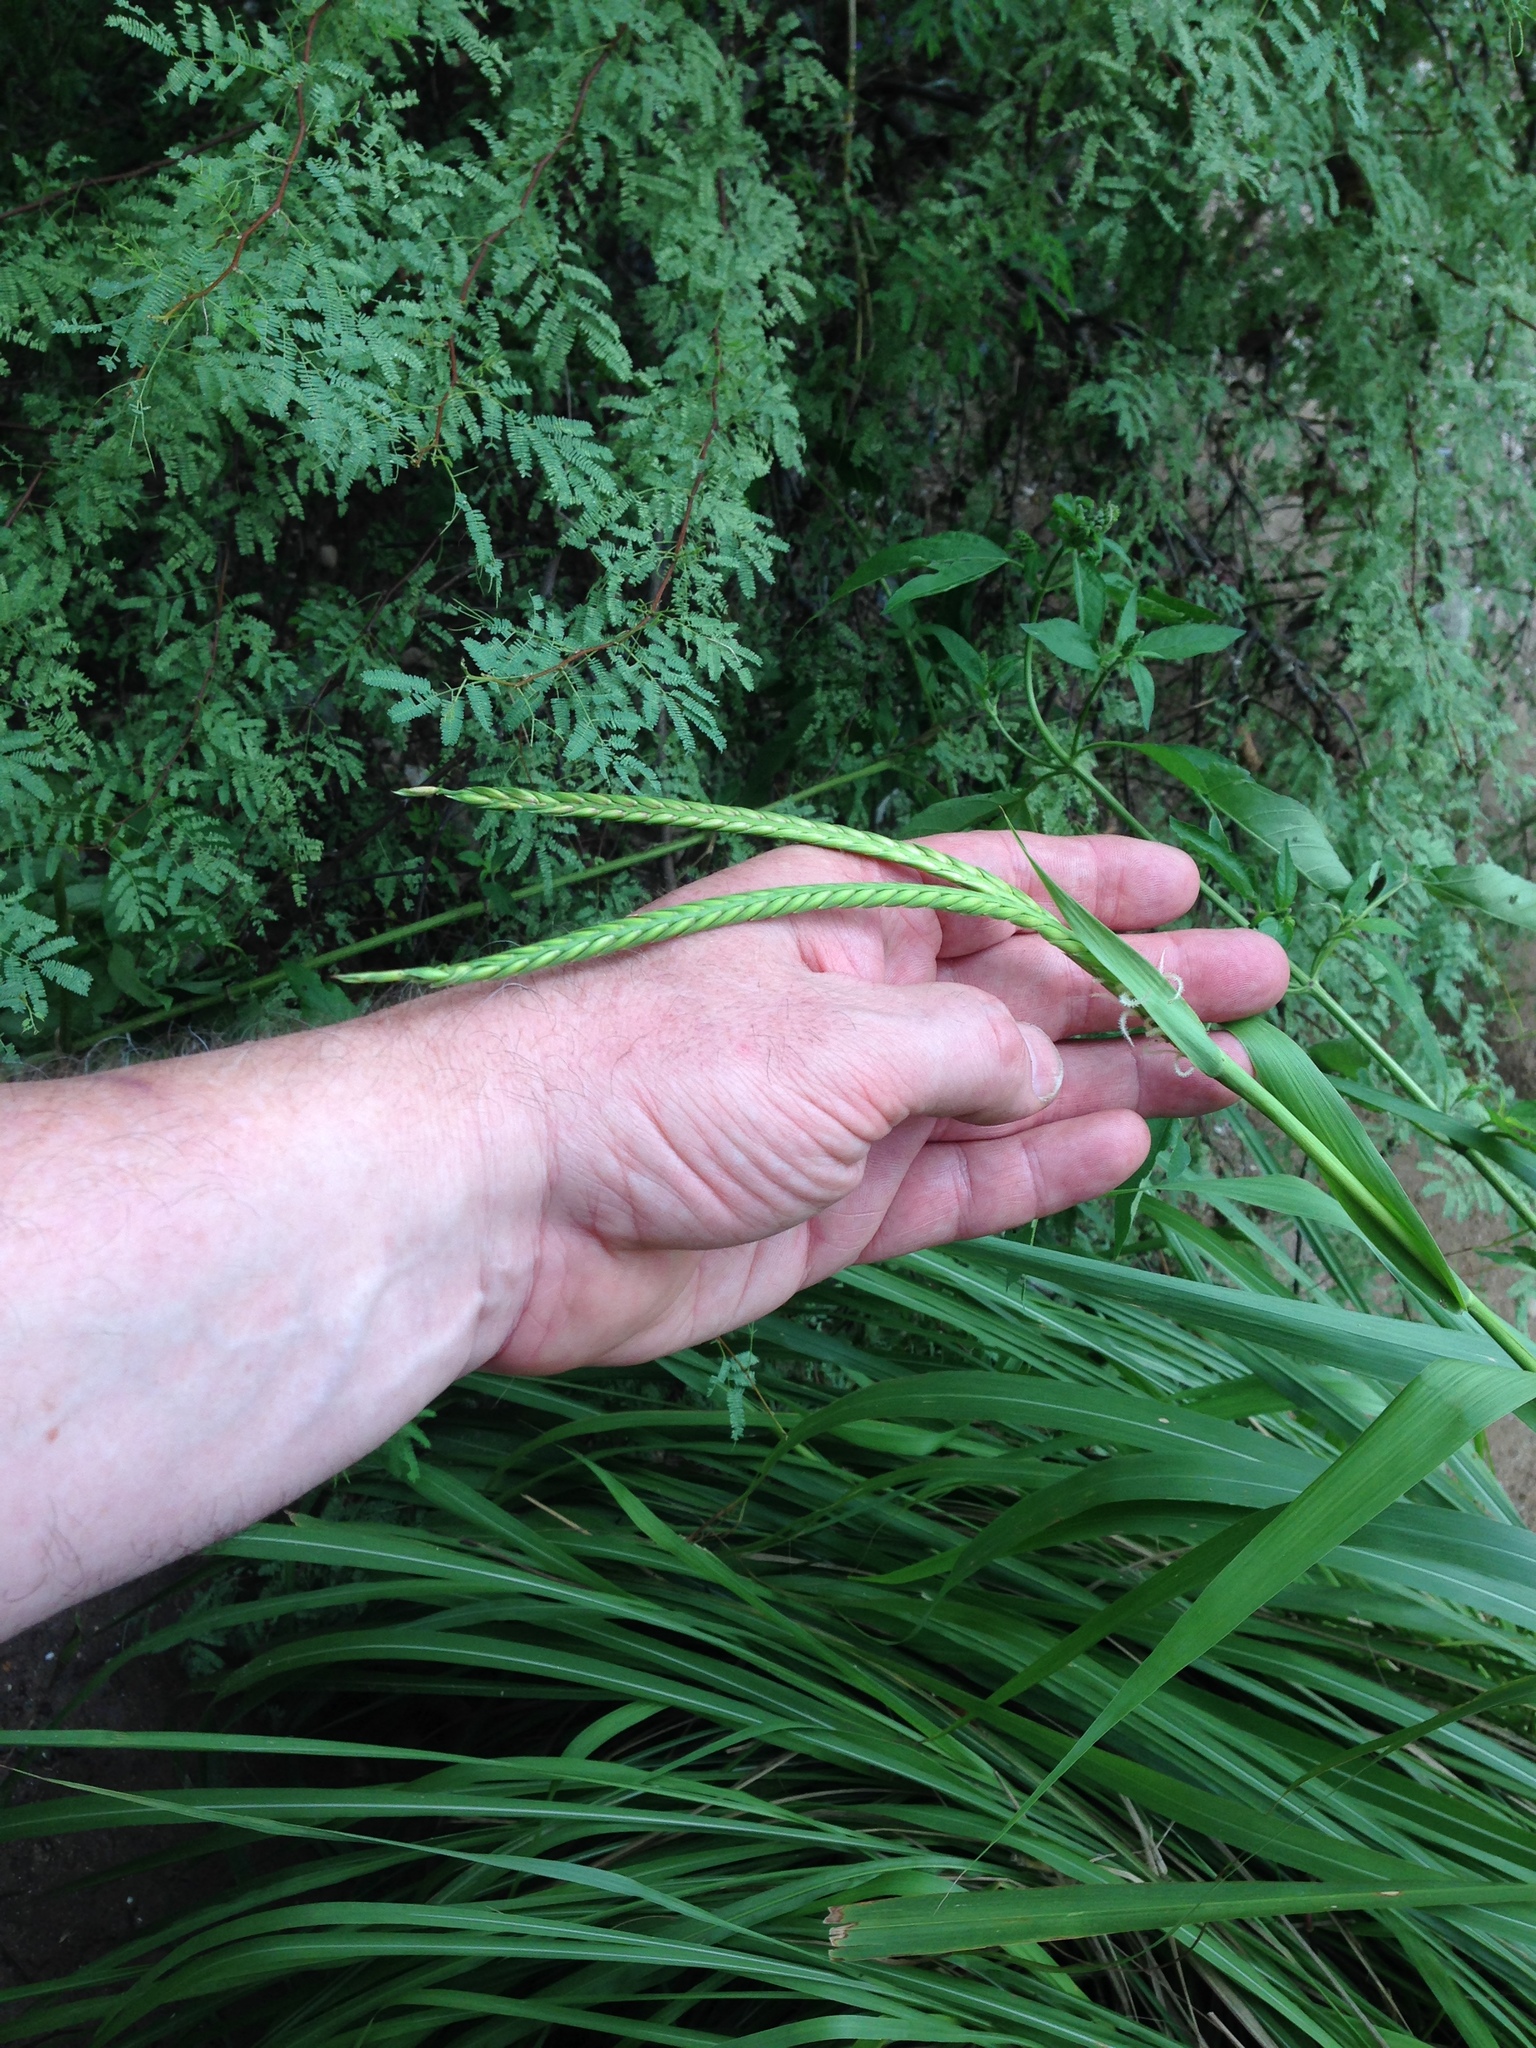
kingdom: Plantae
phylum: Tracheophyta
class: Liliopsida
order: Poales
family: Poaceae
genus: Tripsacum
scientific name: Tripsacum dactyloides
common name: Buffalo-grass
